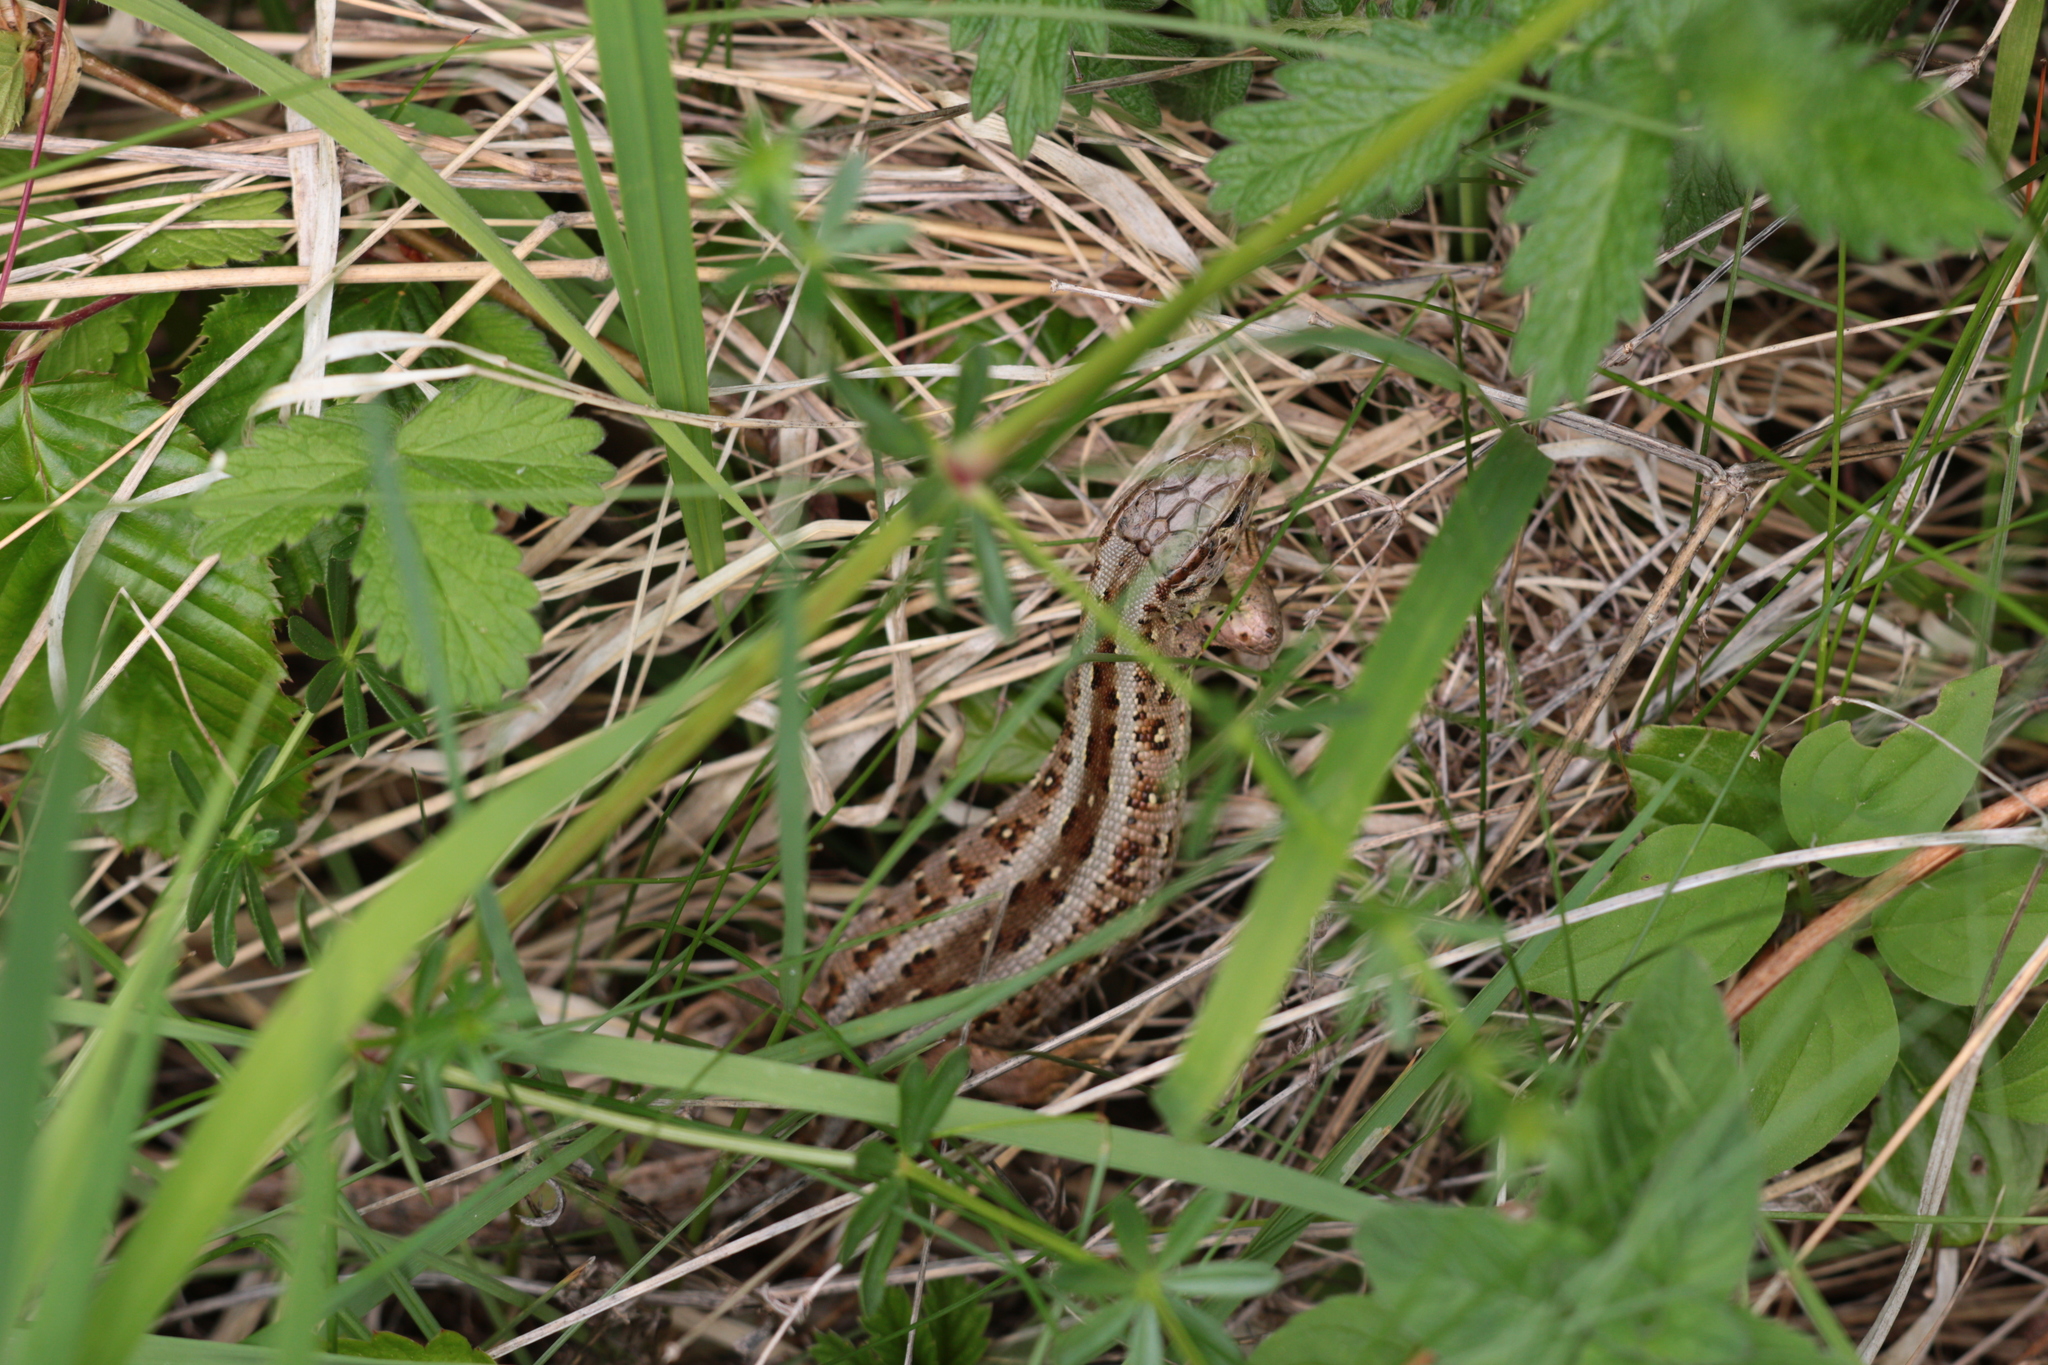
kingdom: Animalia
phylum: Chordata
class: Squamata
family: Lacertidae
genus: Lacerta
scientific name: Lacerta agilis
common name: Sand lizard
